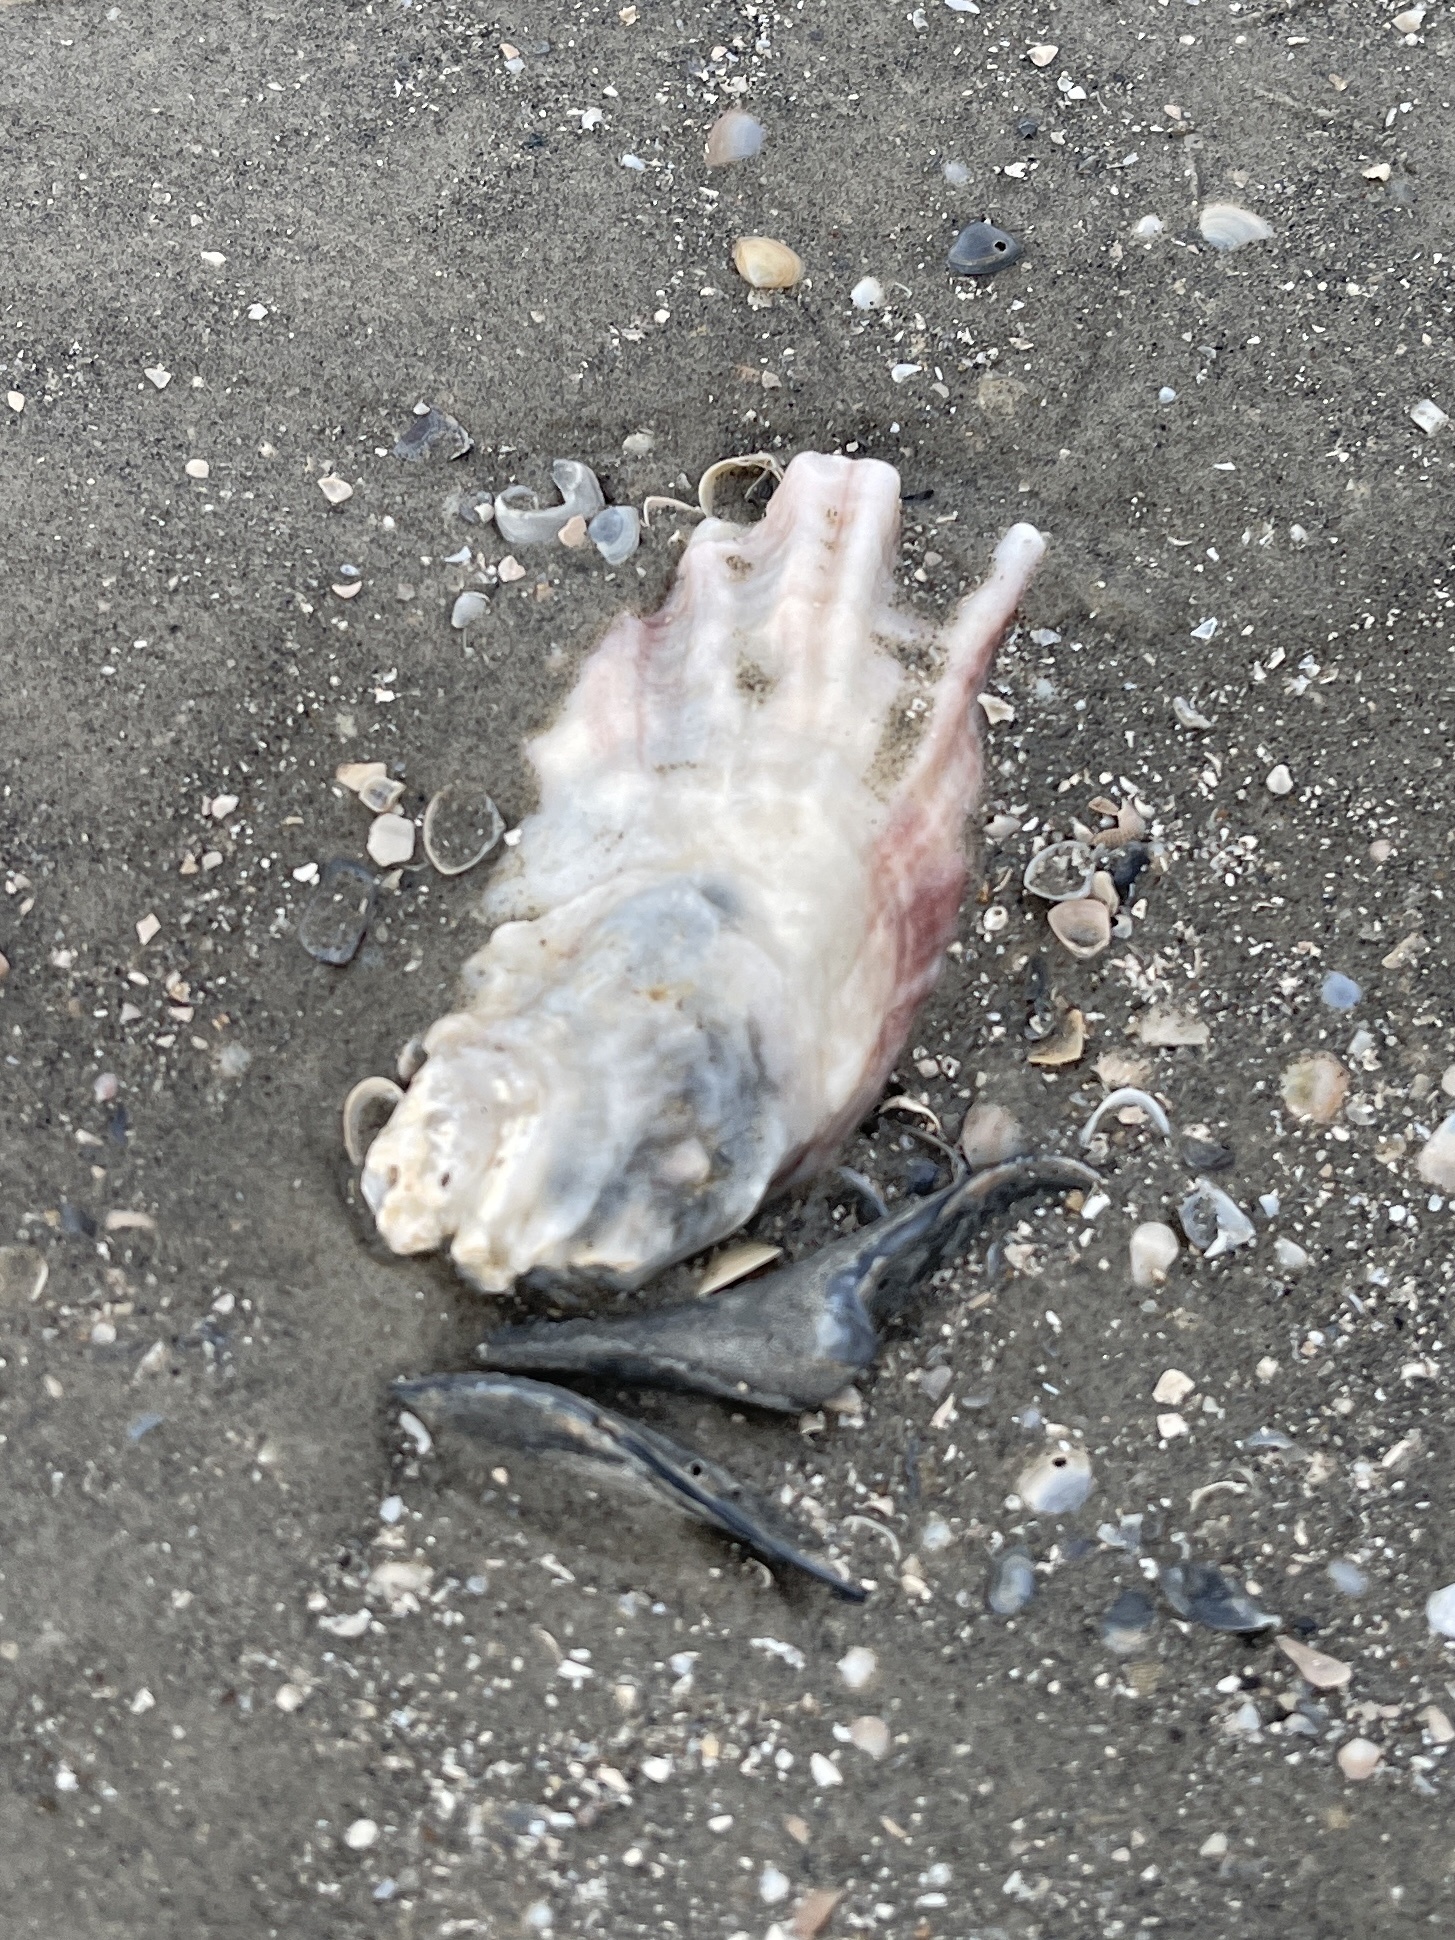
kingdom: Animalia
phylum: Mollusca
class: Bivalvia
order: Ostreida
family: Ostreidae
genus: Crassostrea
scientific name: Crassostrea virginica
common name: American oyster
